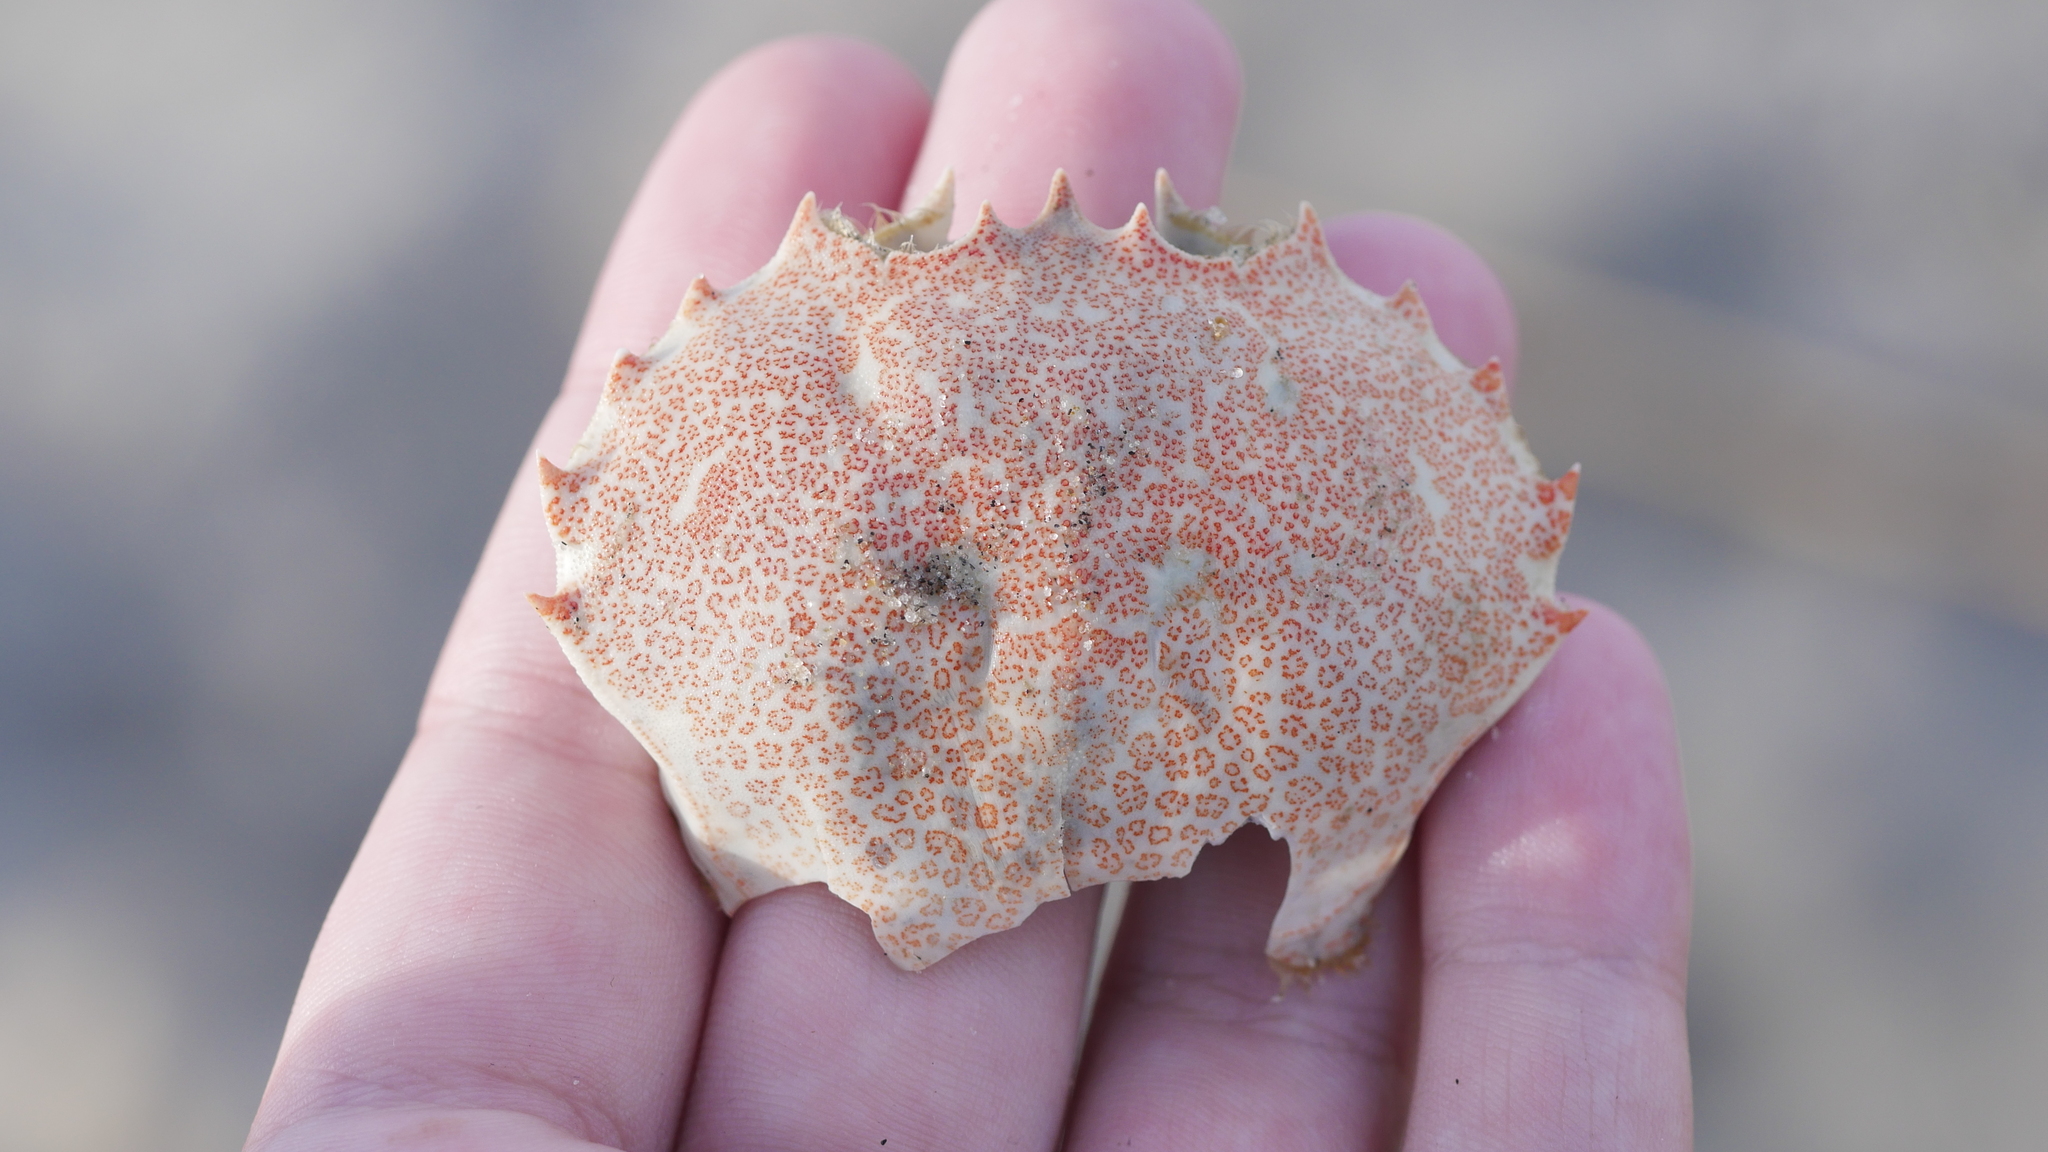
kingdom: Animalia
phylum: Arthropoda
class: Malacostraca
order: Decapoda
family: Ovalipidae
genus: Ovalipes
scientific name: Ovalipes ocellatus
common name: Lady crab
